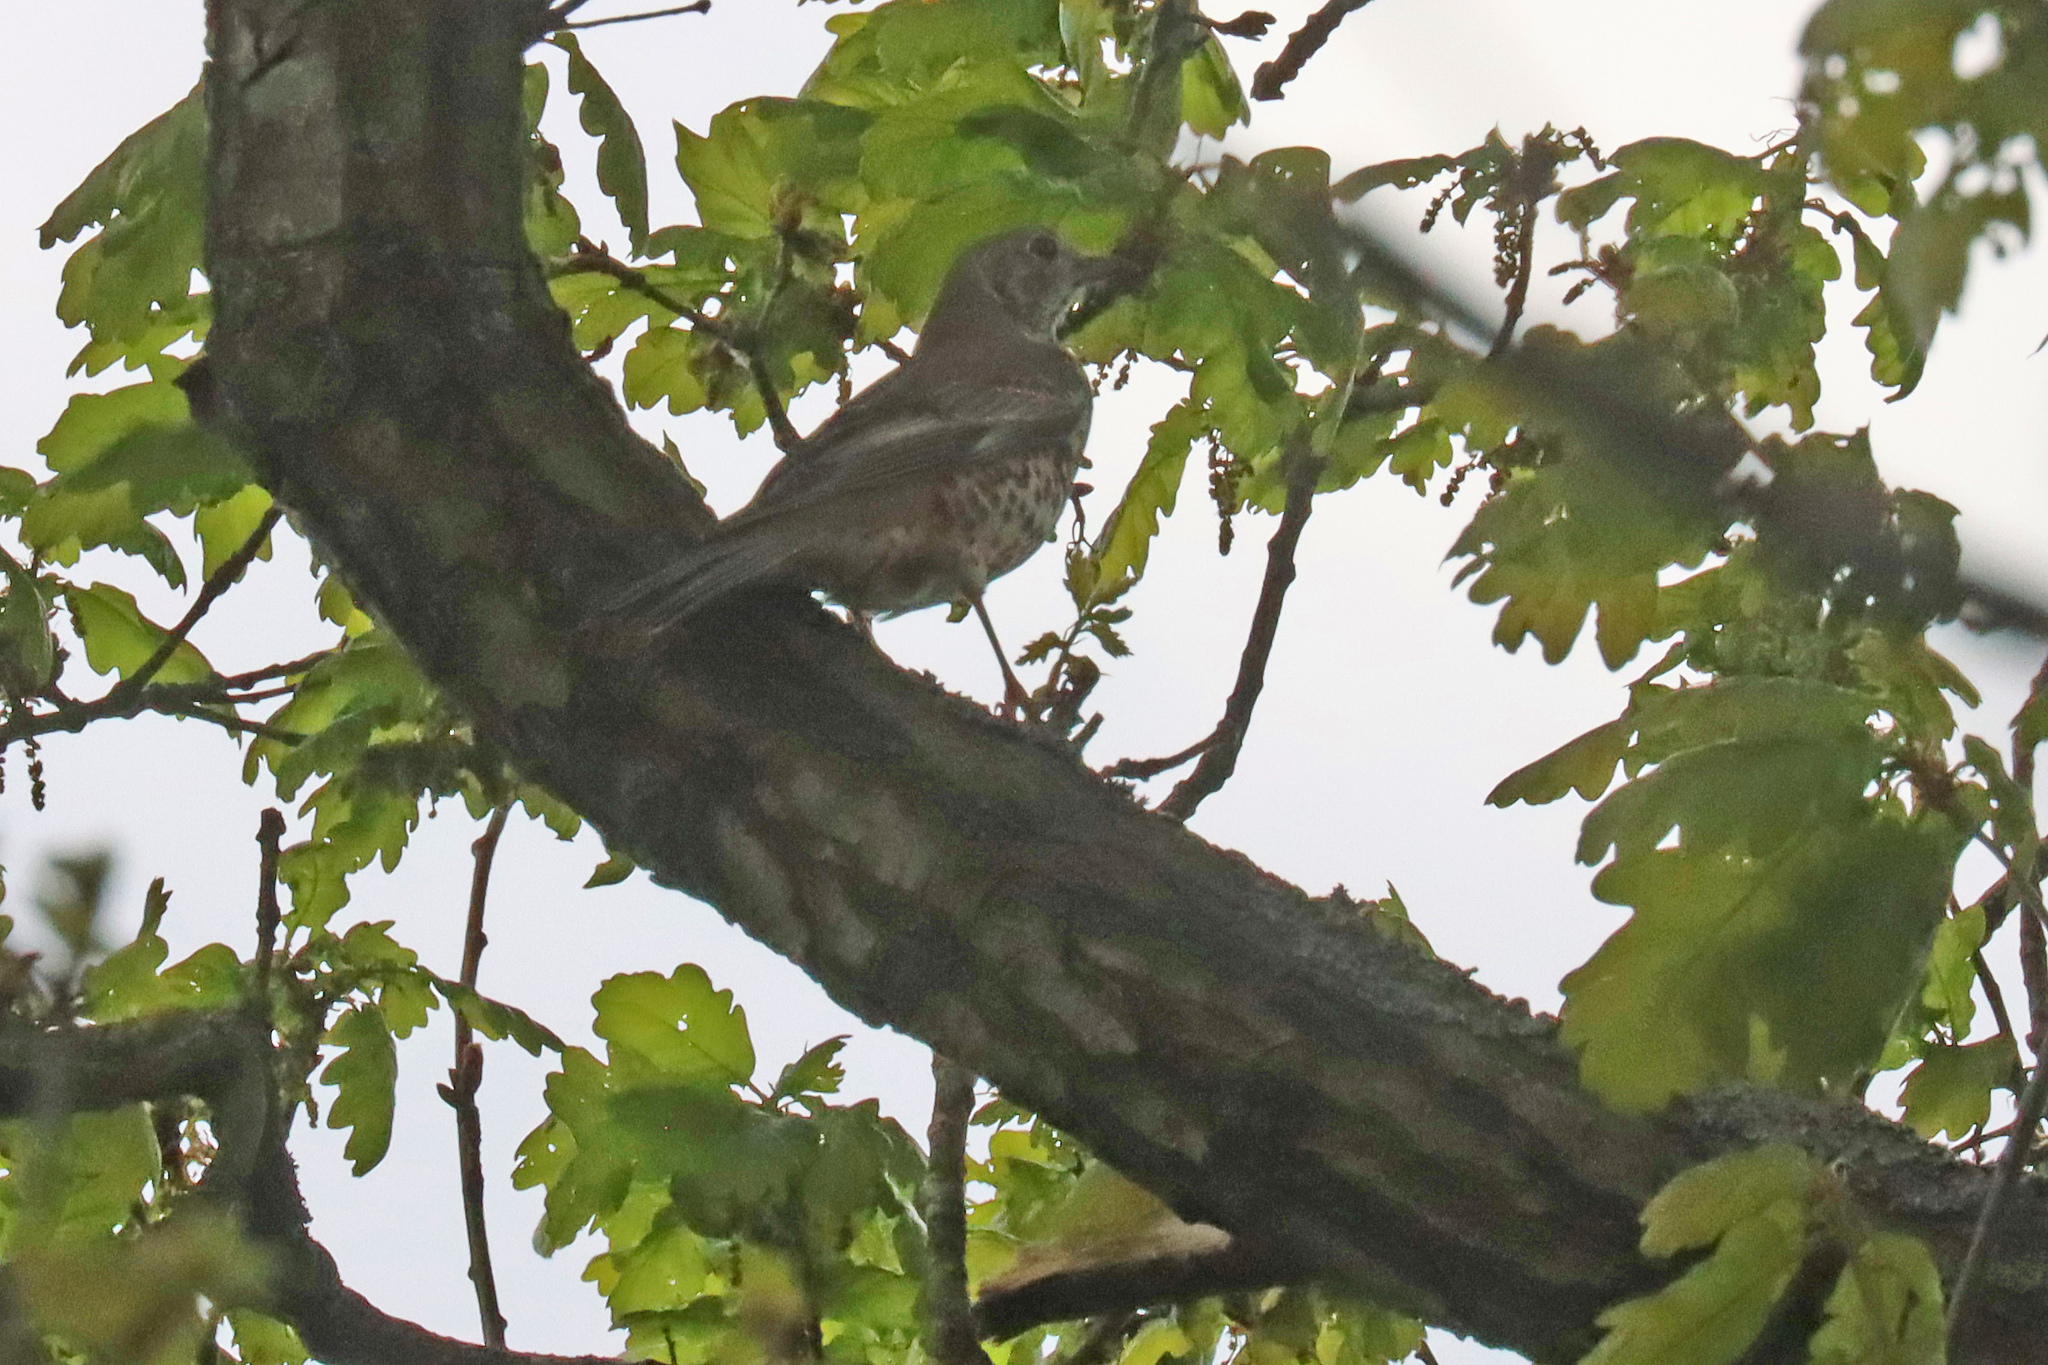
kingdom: Animalia
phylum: Chordata
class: Aves
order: Passeriformes
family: Turdidae
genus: Turdus
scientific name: Turdus viscivorus
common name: Mistle thrush
